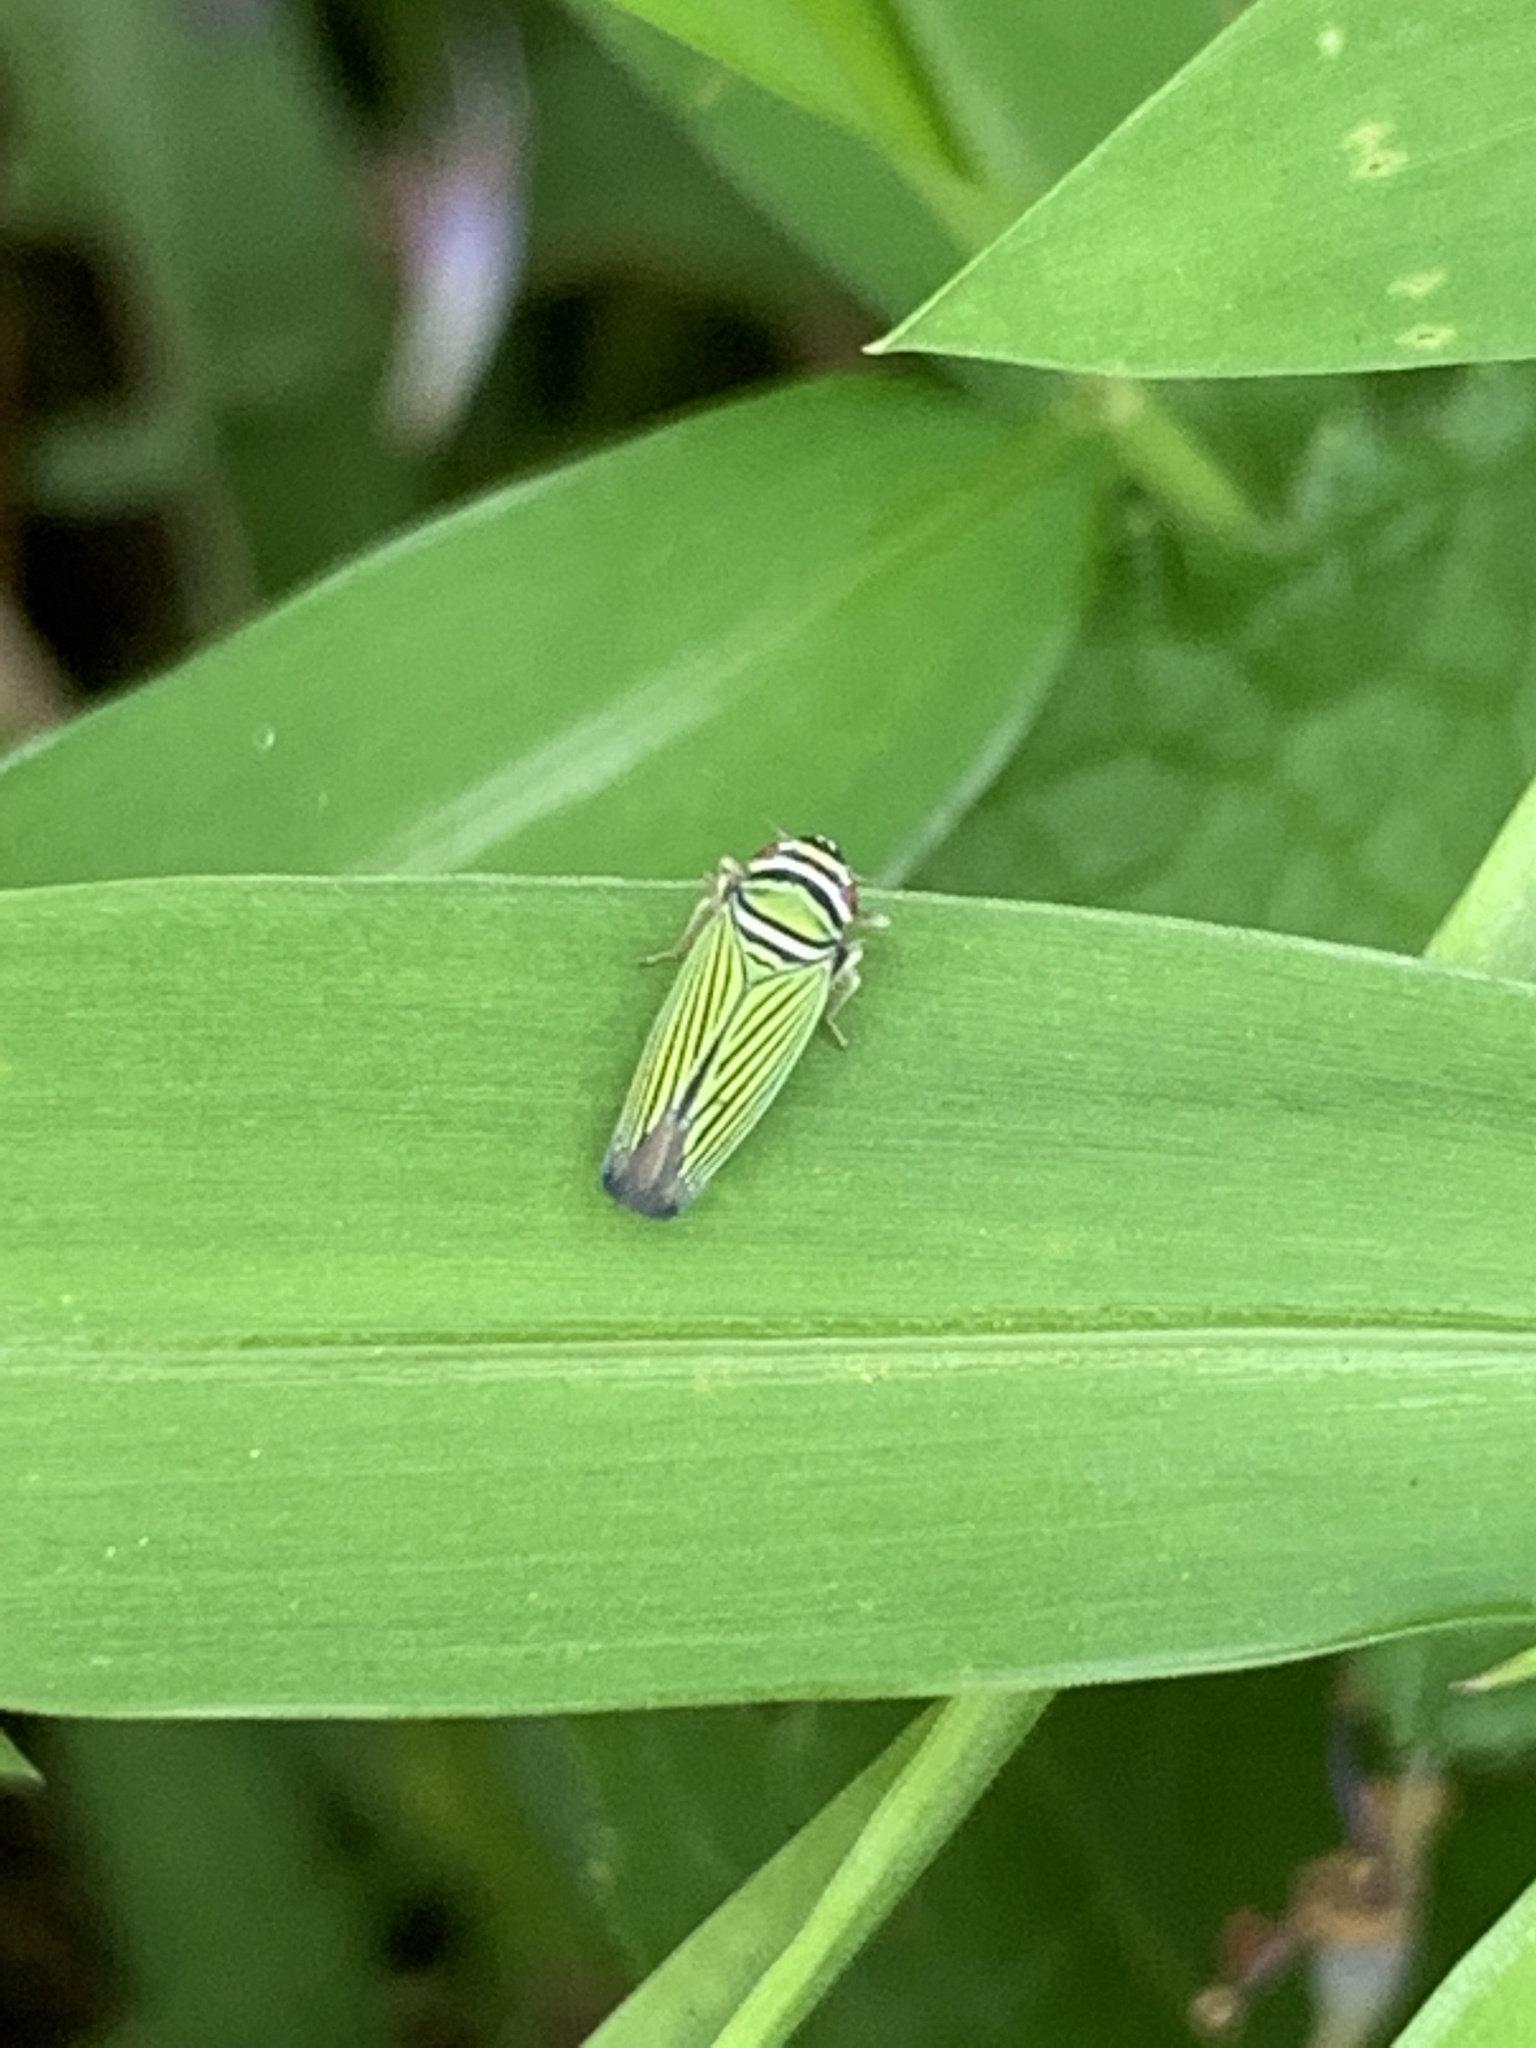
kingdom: Animalia
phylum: Arthropoda
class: Insecta
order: Hemiptera
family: Cicadellidae
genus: Tylozygus
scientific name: Tylozygus bifidus
